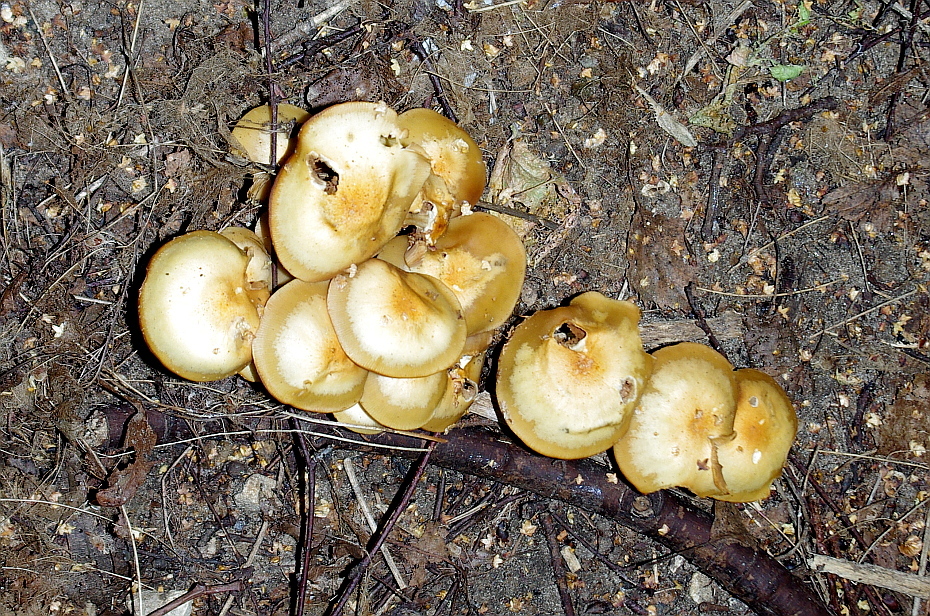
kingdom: Fungi
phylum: Basidiomycota
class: Agaricomycetes
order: Agaricales
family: Strophariaceae
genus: Kuehneromyces
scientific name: Kuehneromyces mutabilis
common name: Sheathed woodtuft
